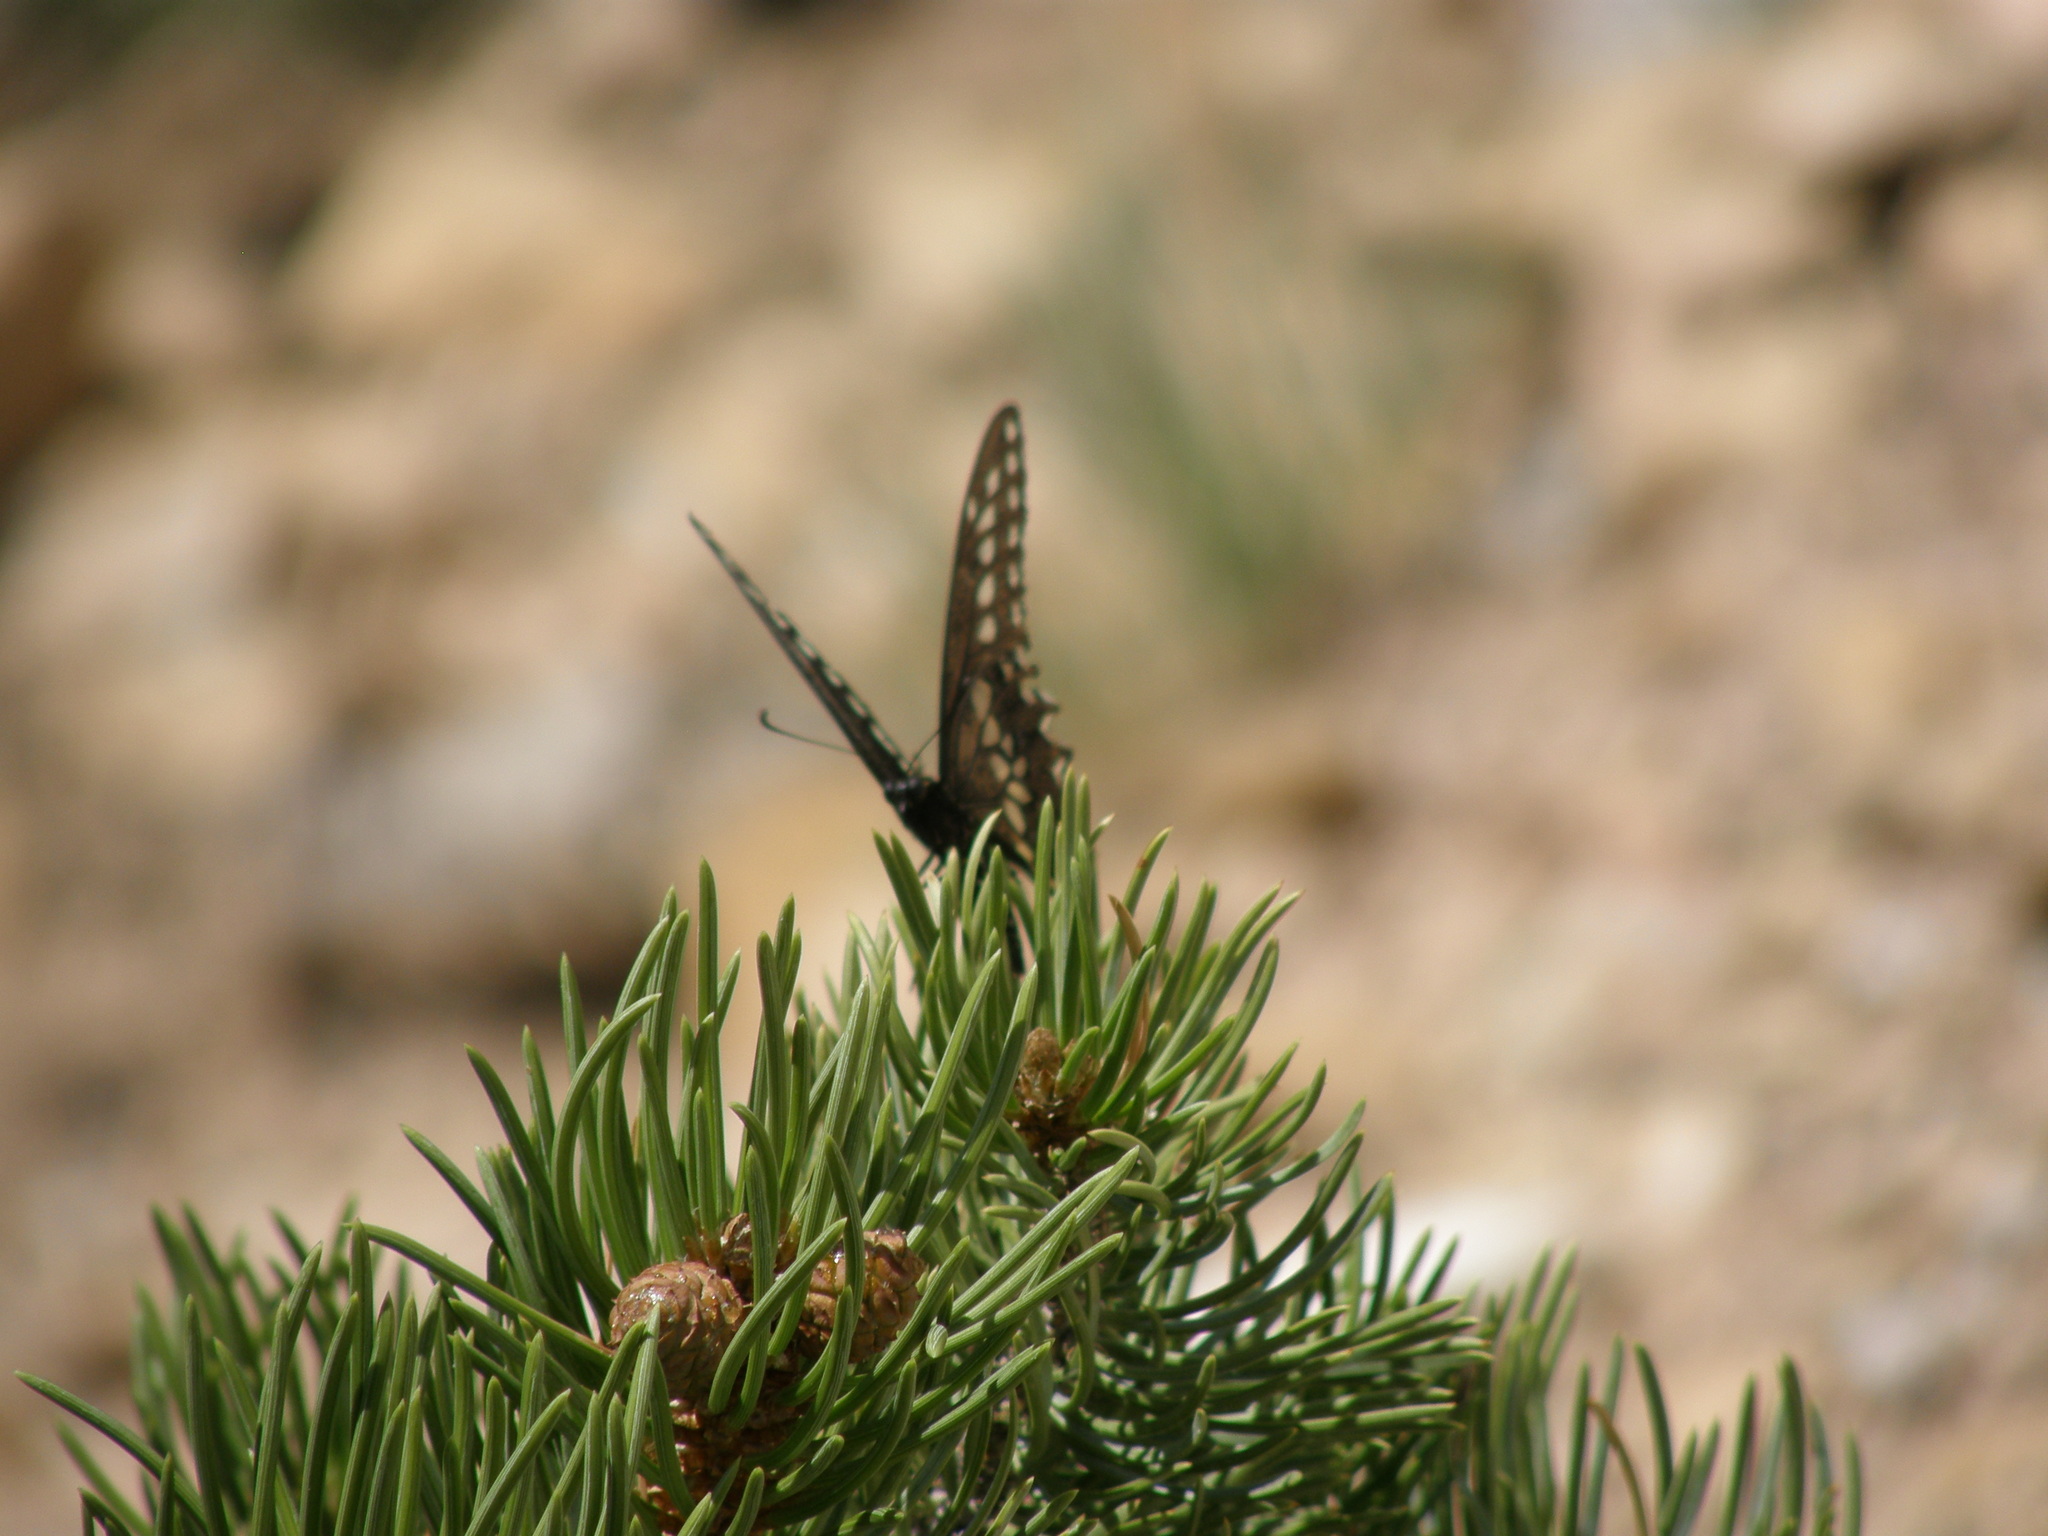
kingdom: Animalia
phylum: Arthropoda
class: Insecta
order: Lepidoptera
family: Papilionidae
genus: Papilio
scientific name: Papilio
